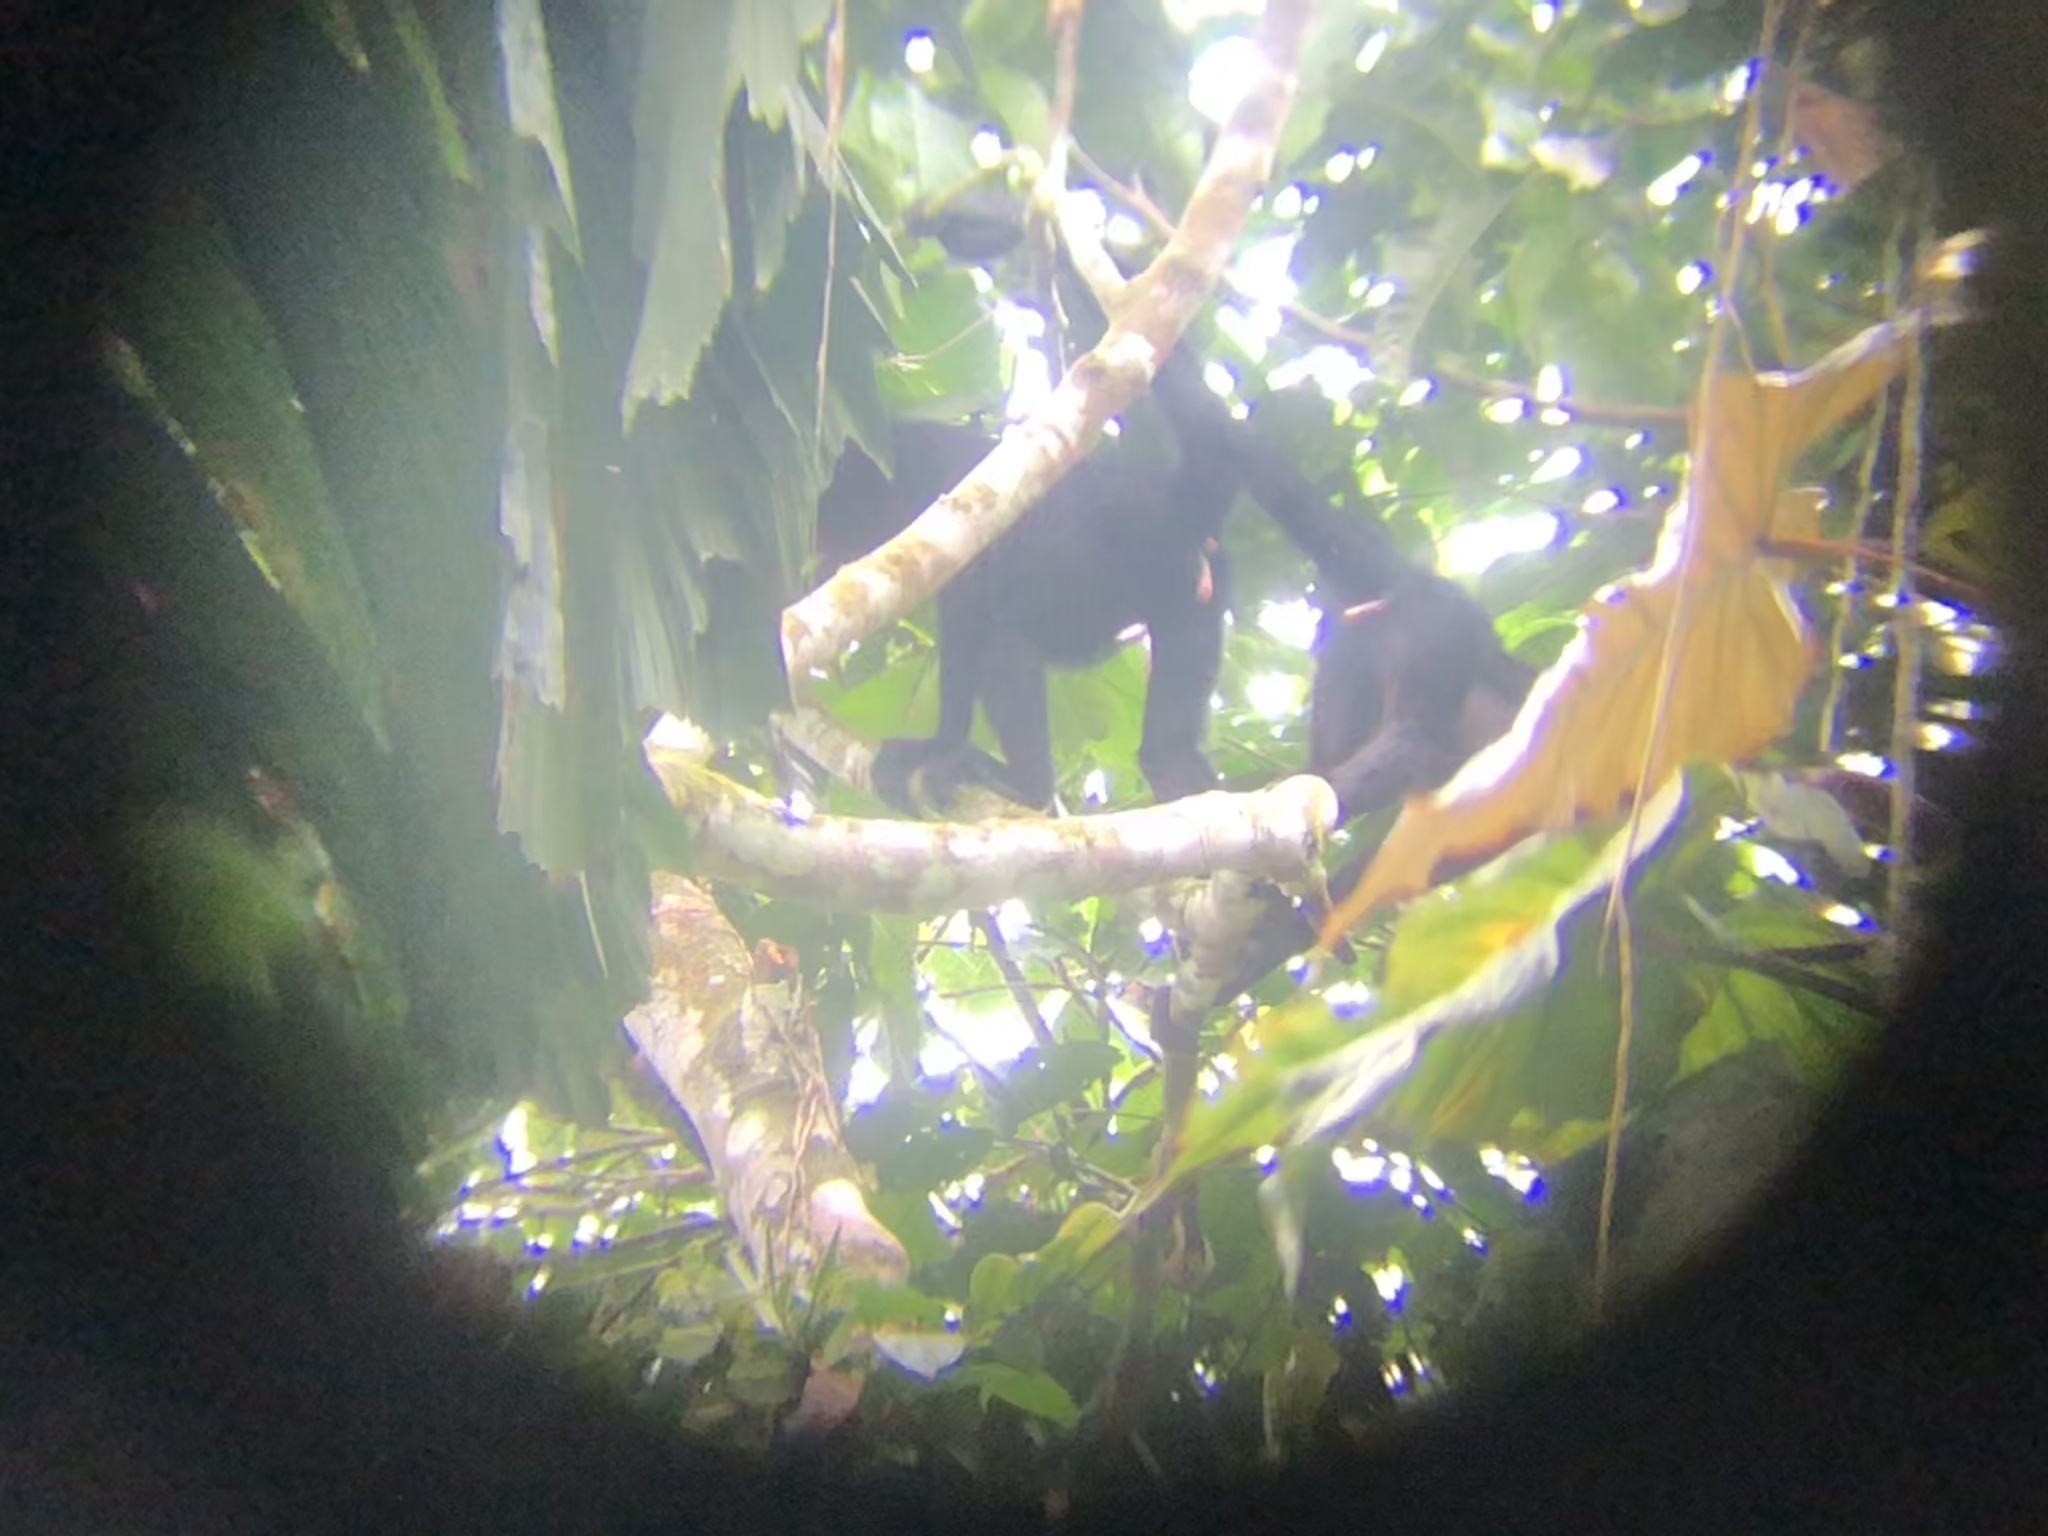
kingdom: Animalia
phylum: Chordata
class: Mammalia
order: Primates
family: Atelidae
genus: Ateles
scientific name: Ateles chamek
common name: Peruvian spider monkey
